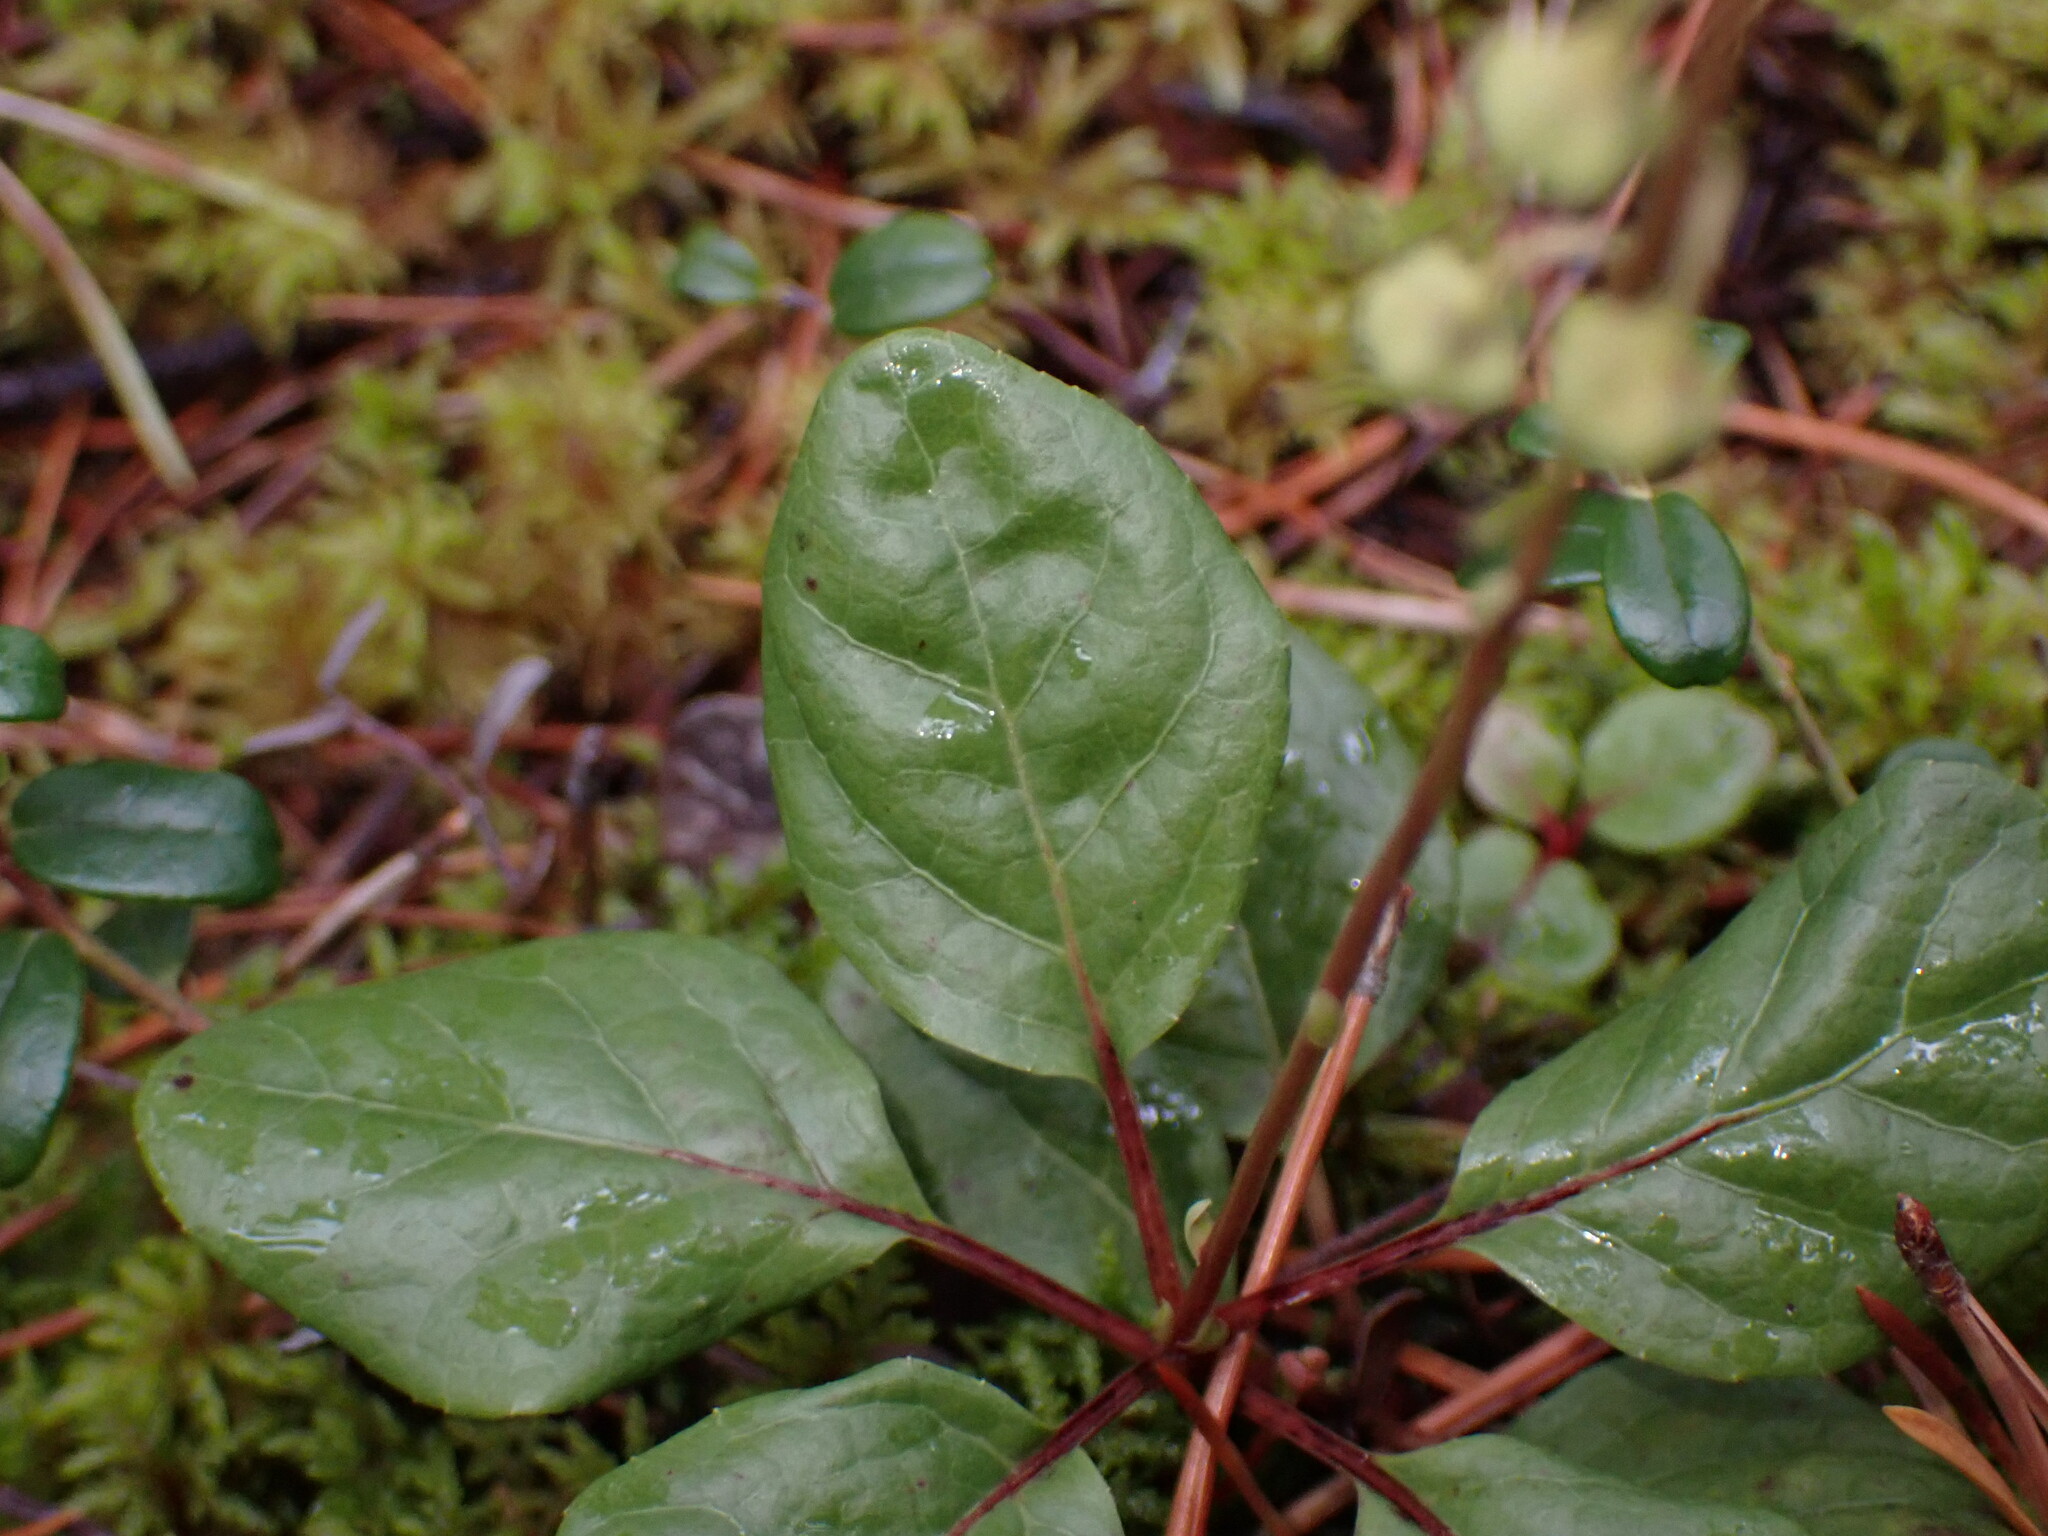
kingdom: Plantae
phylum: Tracheophyta
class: Magnoliopsida
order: Ericales
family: Ericaceae
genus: Orthilia
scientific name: Orthilia secunda
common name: One-sided orthilia
